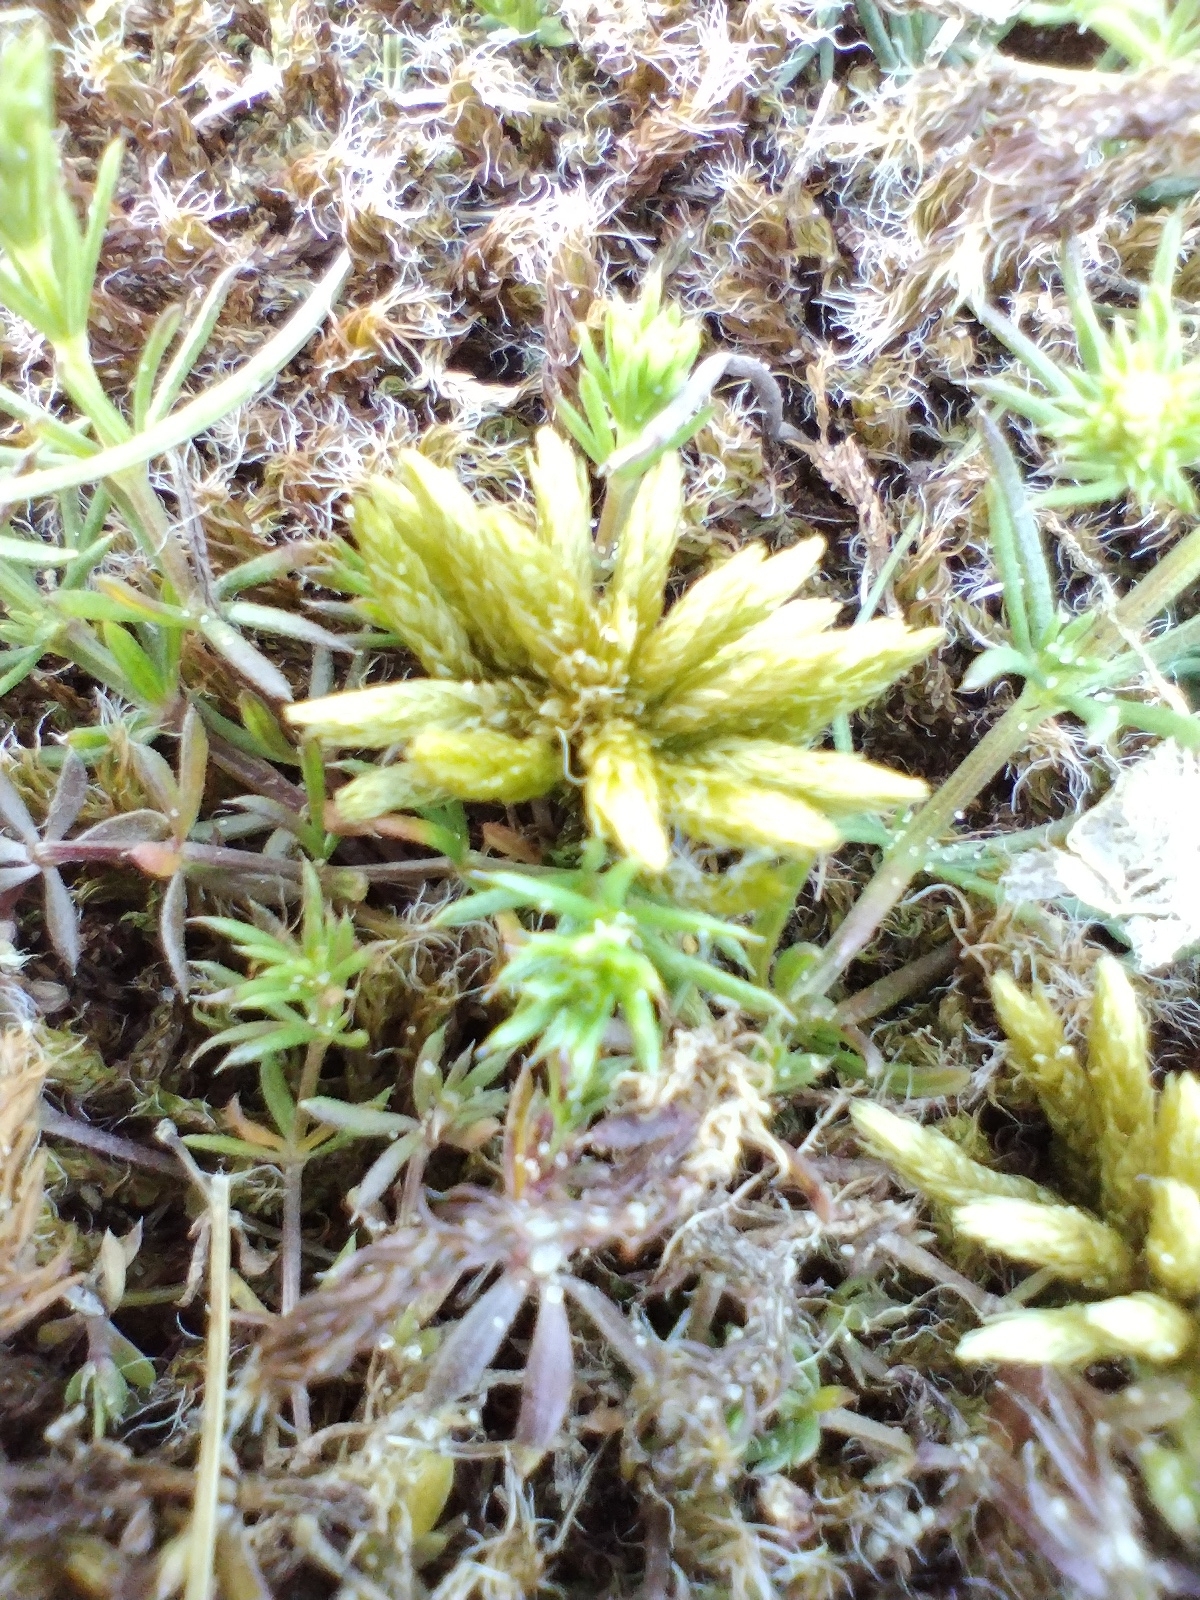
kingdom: Plantae
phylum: Bryophyta
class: Bryopsida
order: Hypnales
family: Climaciaceae
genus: Climacium
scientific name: Climacium dendroides
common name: Northern tree moss
